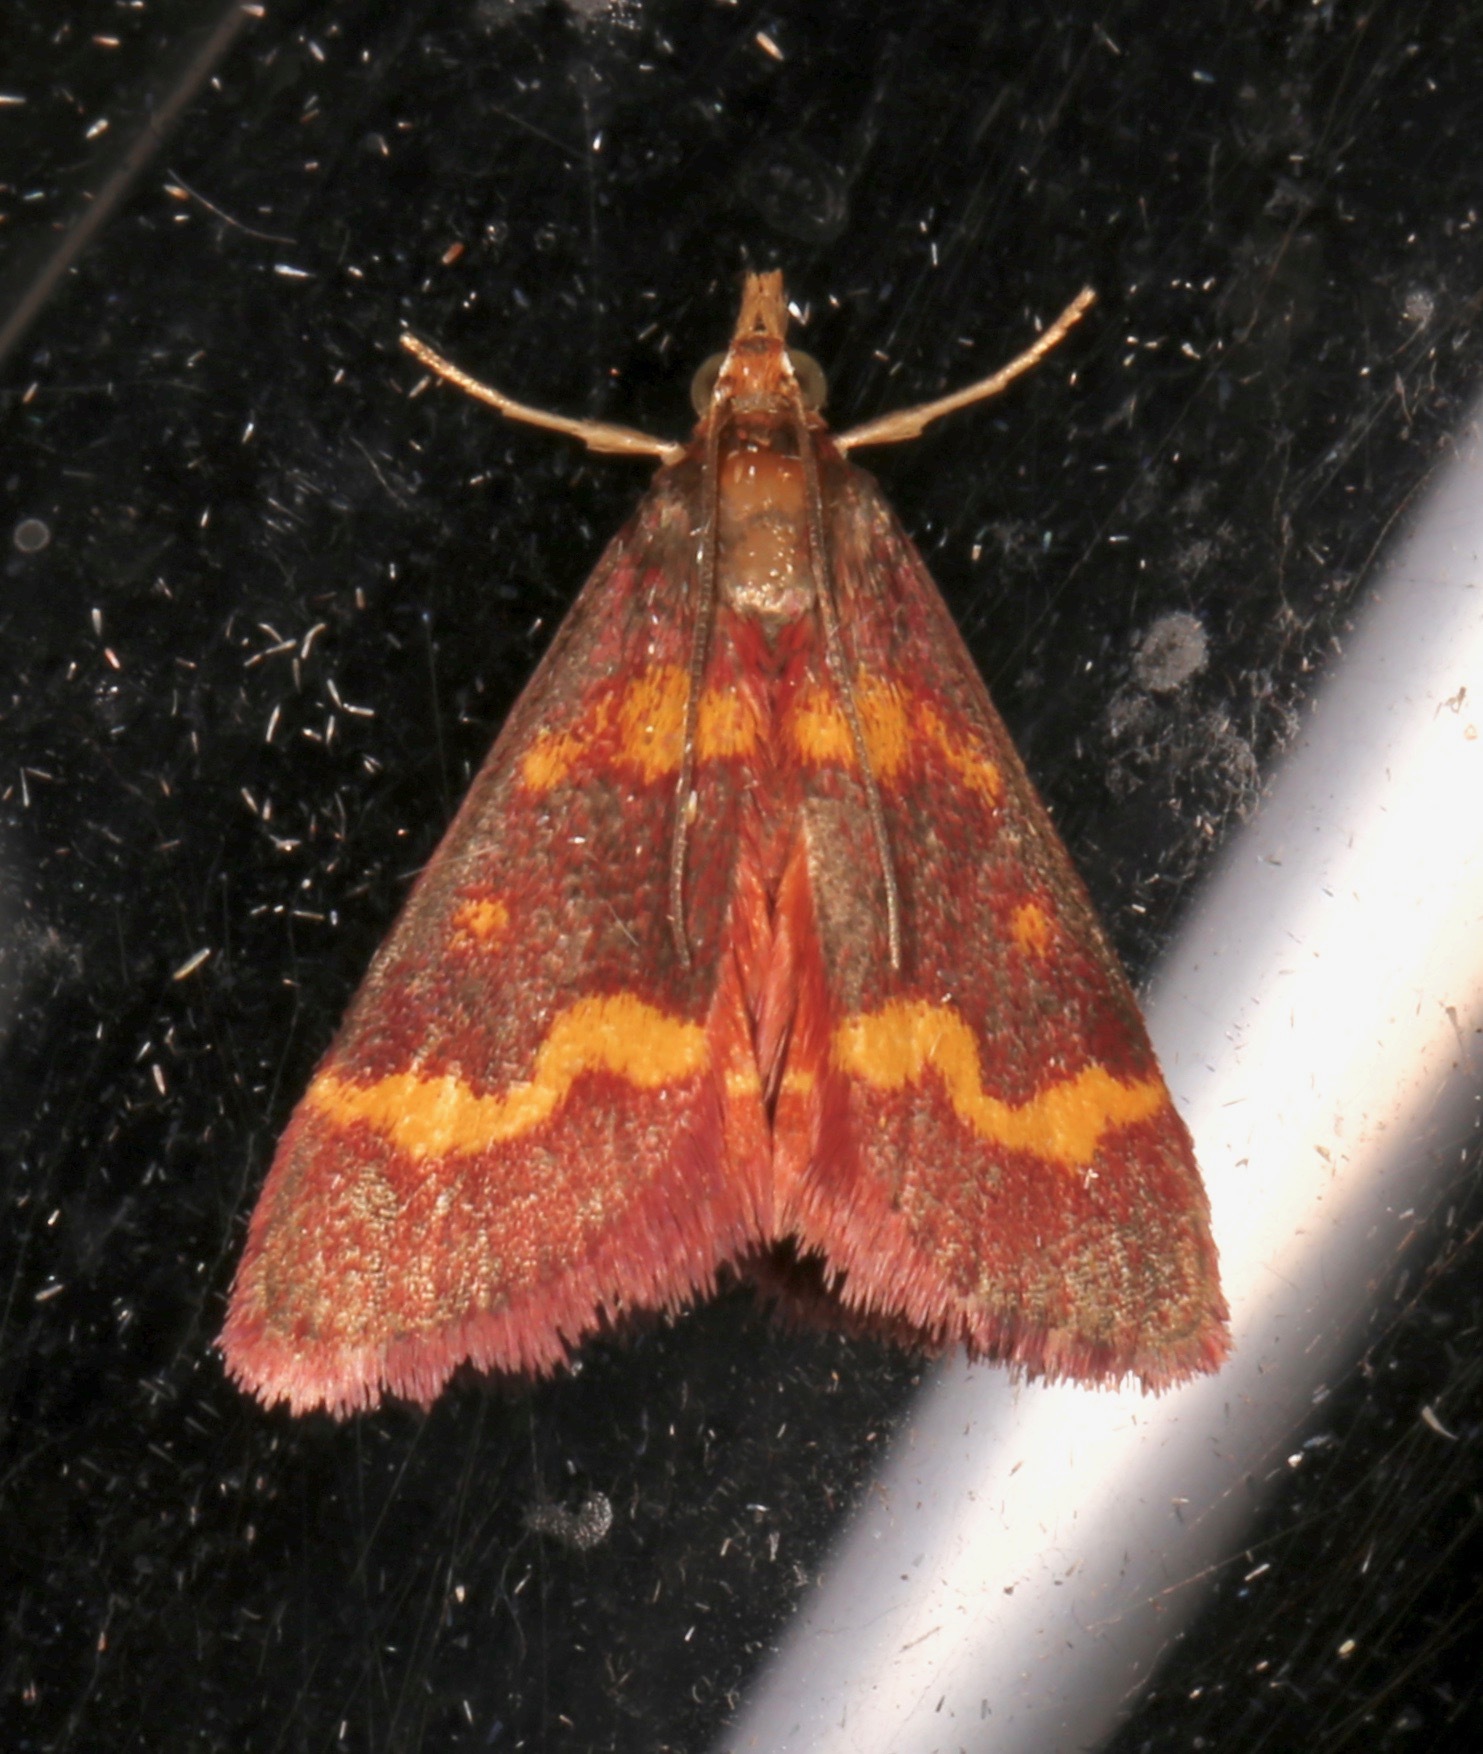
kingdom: Animalia
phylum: Arthropoda
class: Insecta
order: Lepidoptera
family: Crambidae
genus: Pyrausta
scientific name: Pyrausta tyralis
